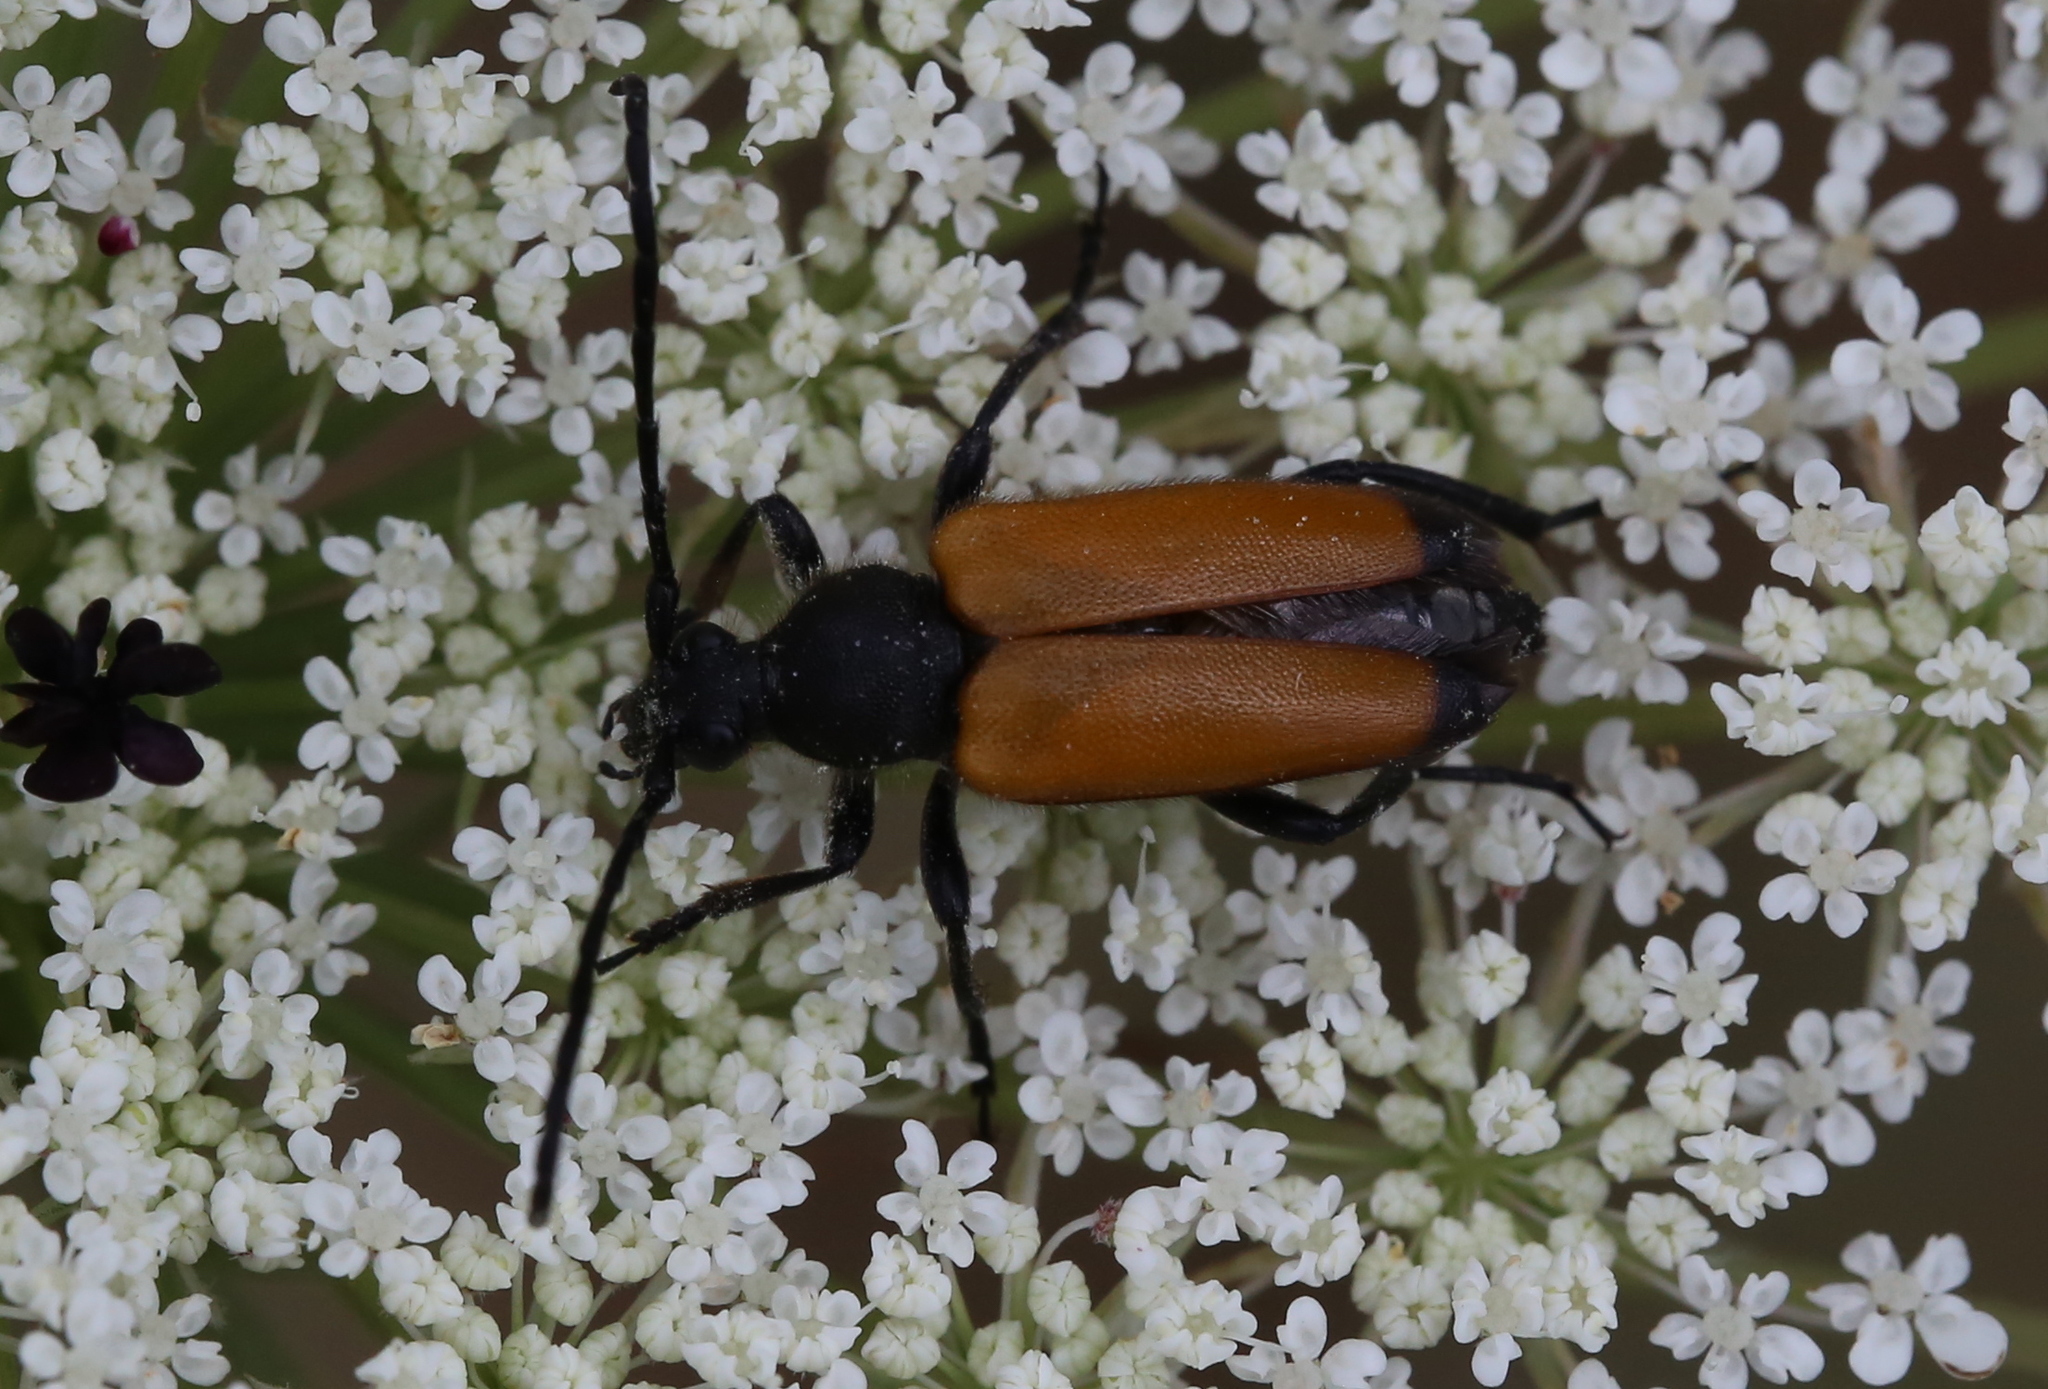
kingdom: Animalia
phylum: Arthropoda
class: Insecta
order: Coleoptera
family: Cerambycidae
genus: Paracorymbia
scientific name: Paracorymbia fulva
